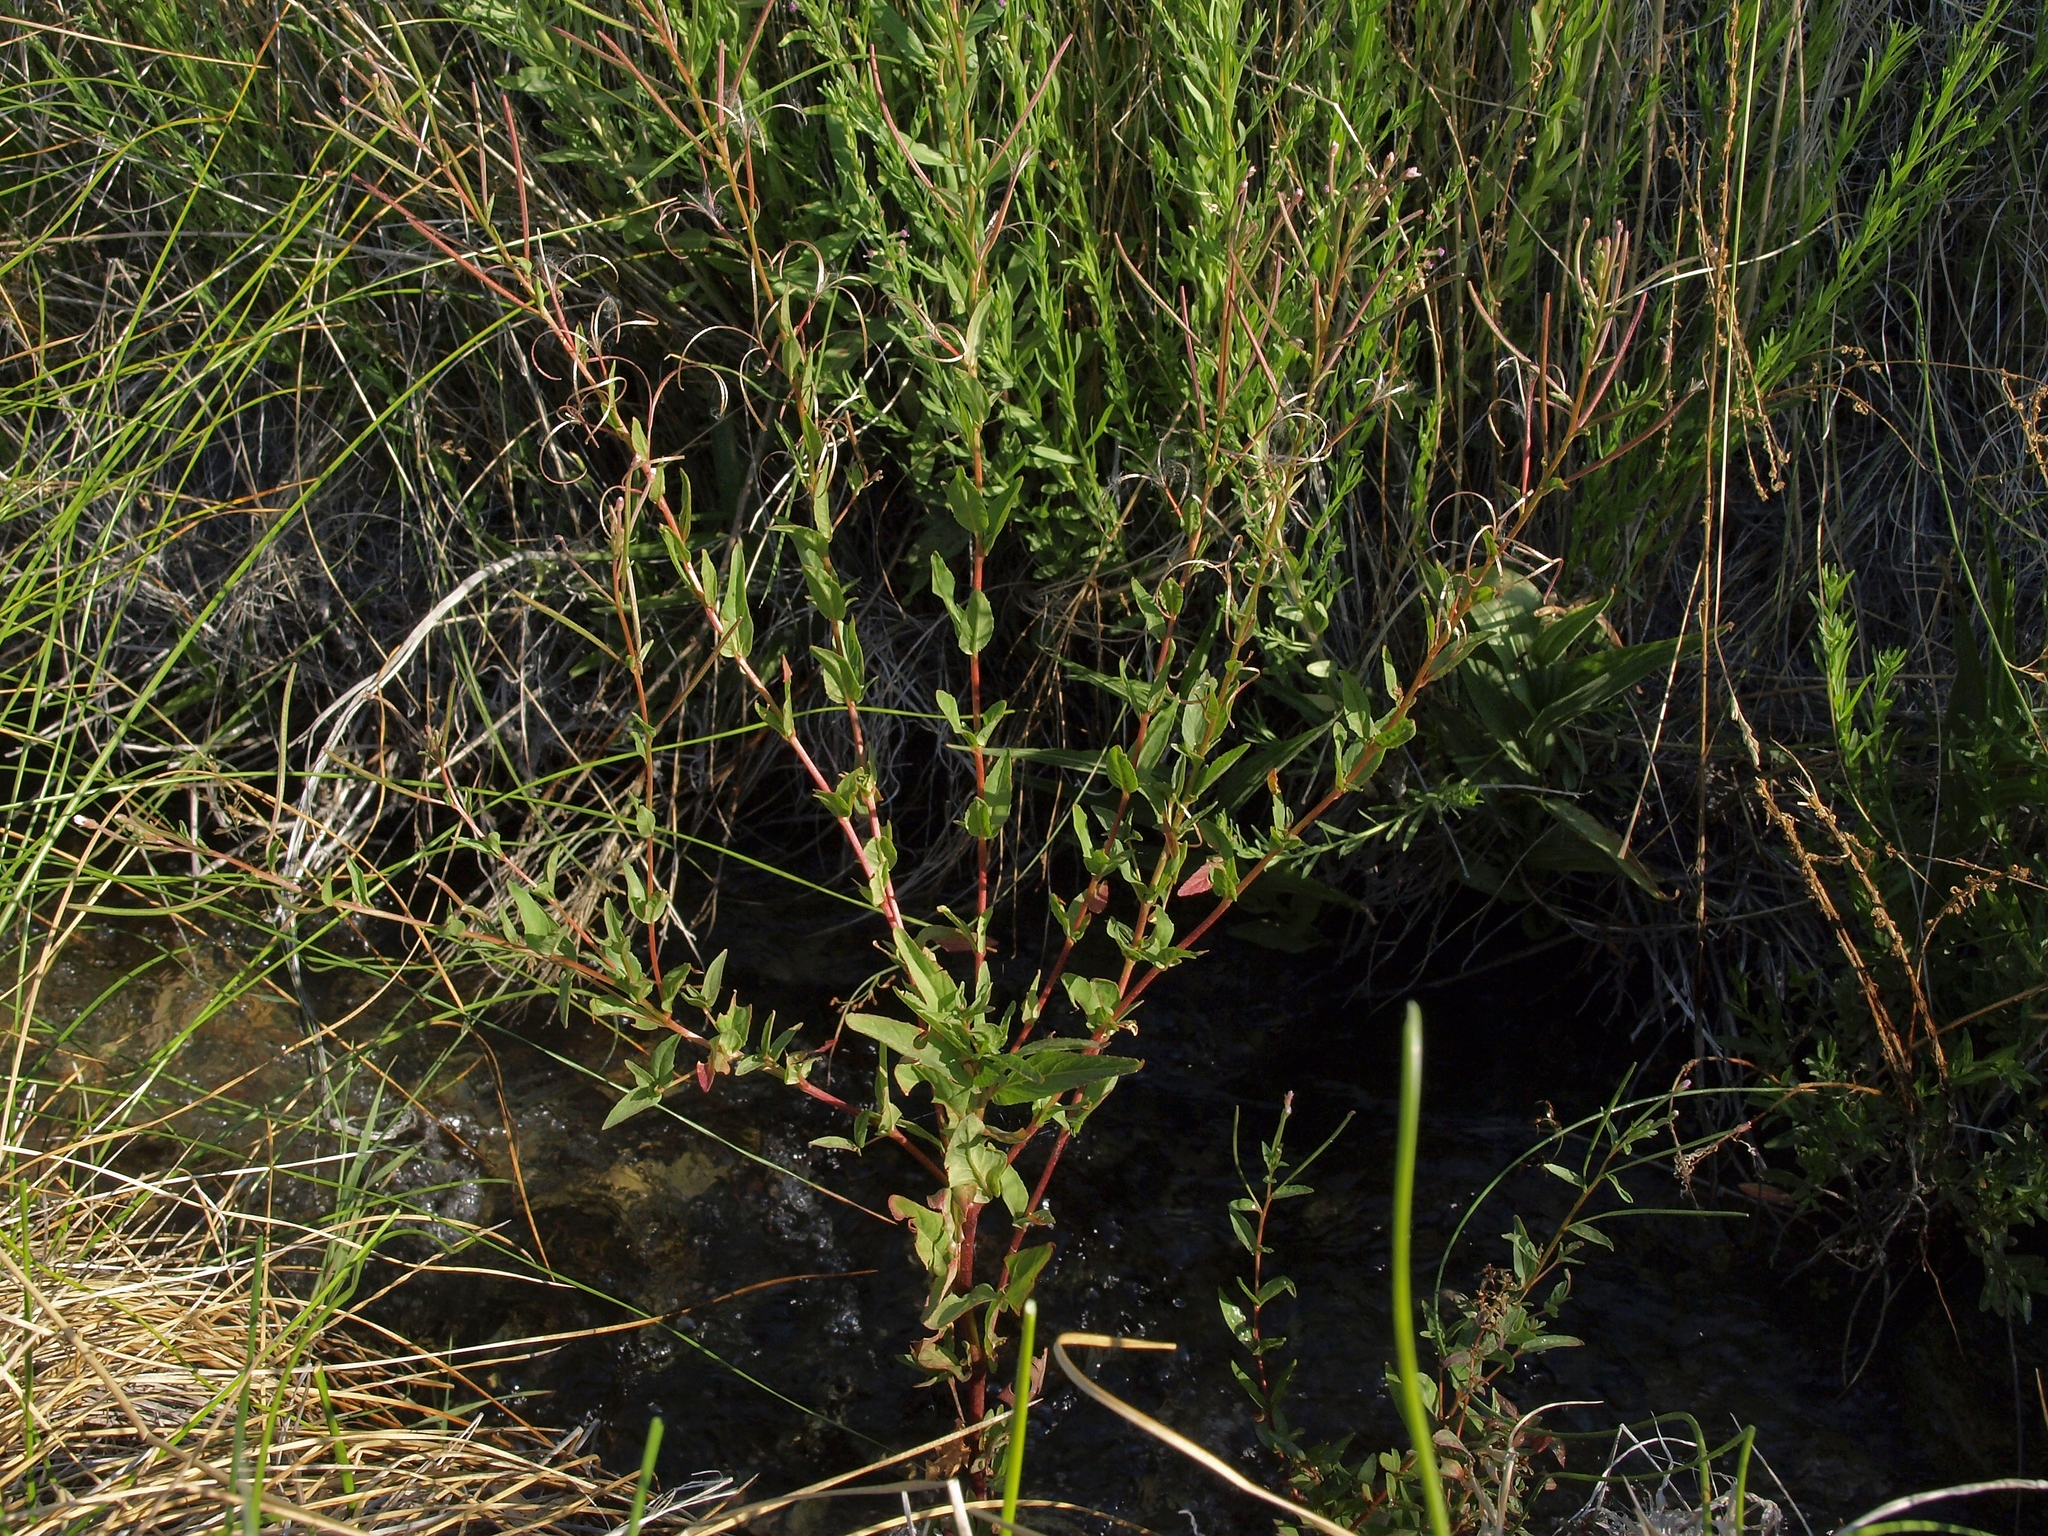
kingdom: Plantae
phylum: Tracheophyta
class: Magnoliopsida
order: Myrtales
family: Onagraceae
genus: Epilobium
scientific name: Epilobium ciliatum
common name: American willowherb
